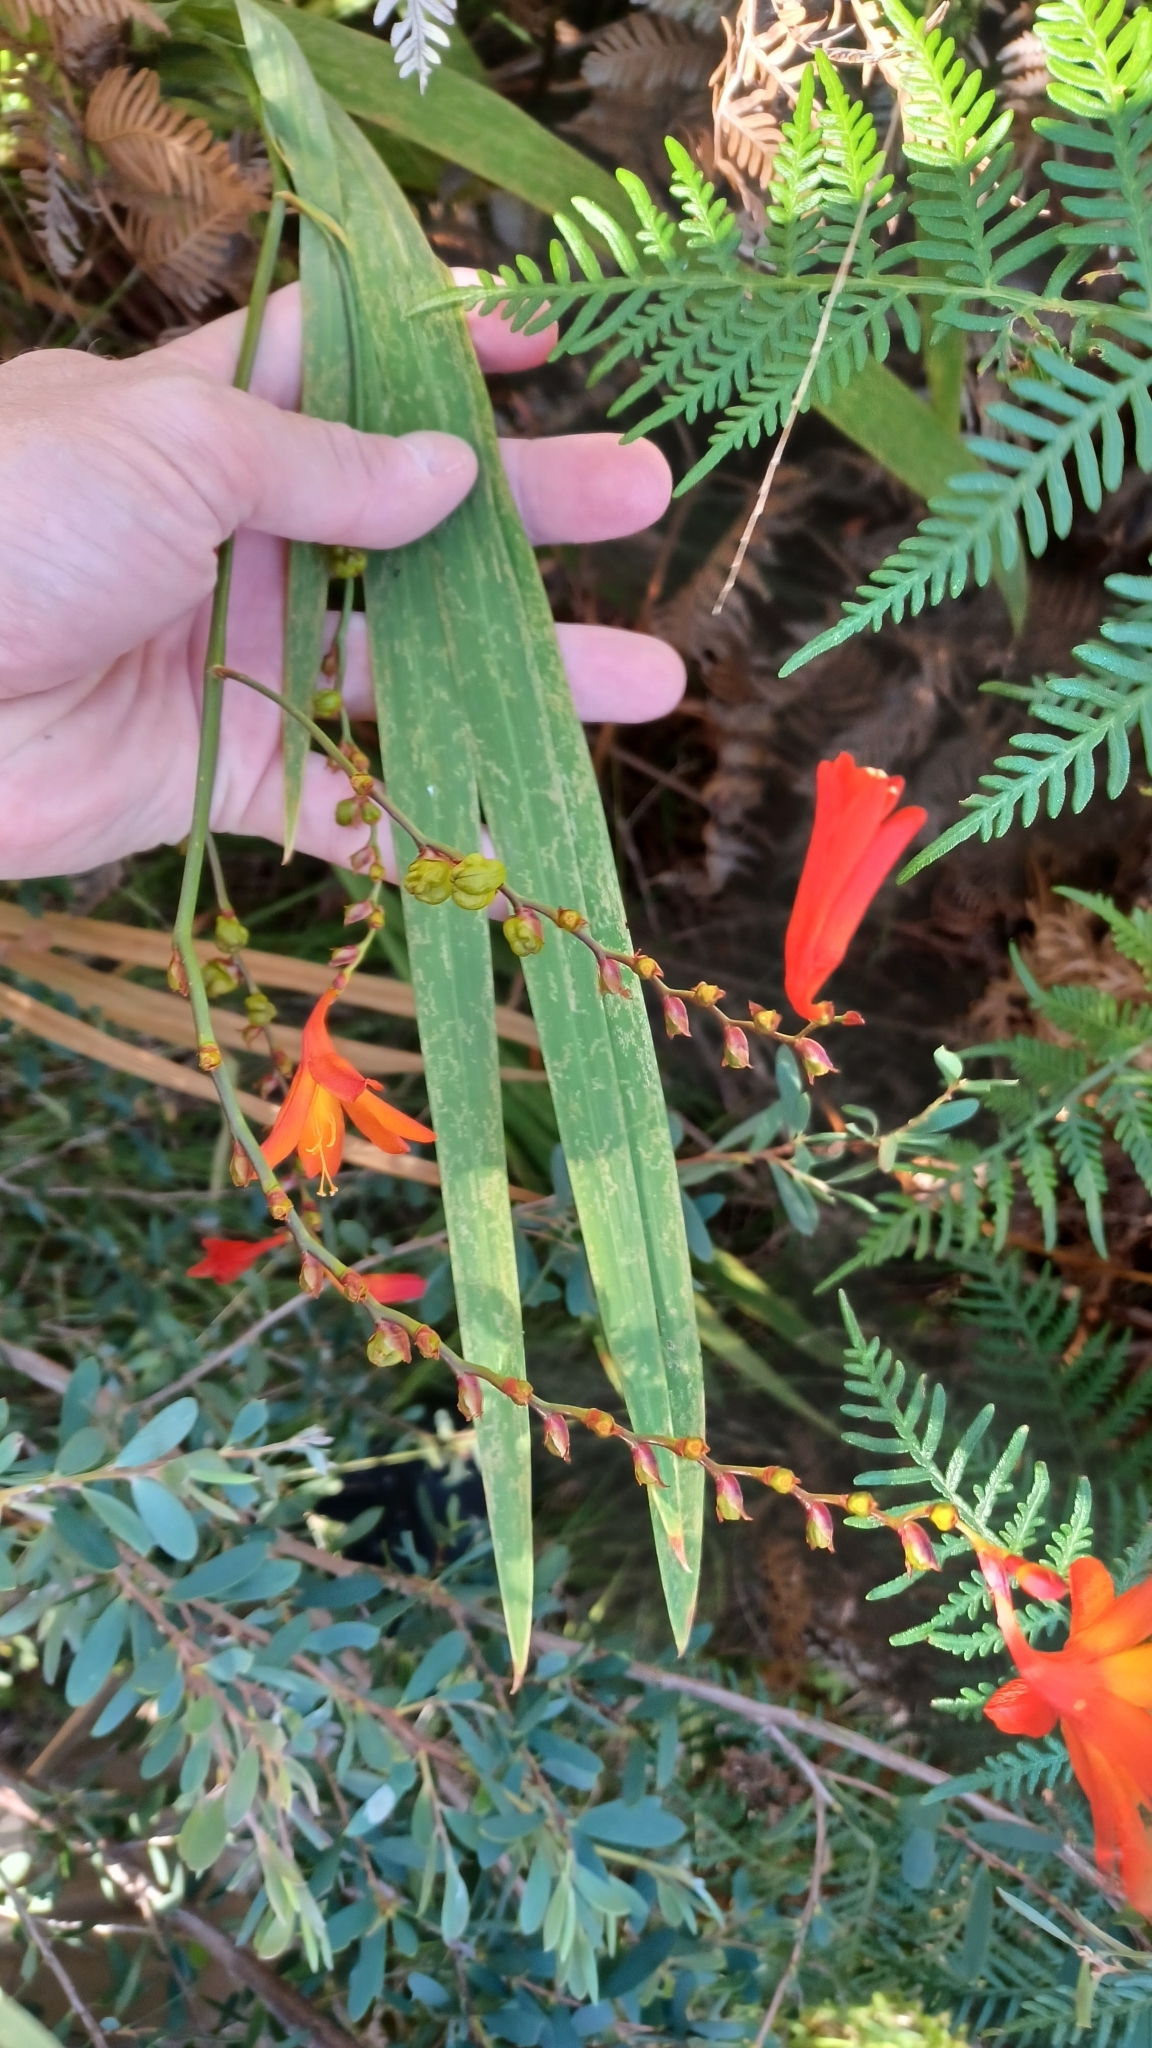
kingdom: Plantae
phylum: Tracheophyta
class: Liliopsida
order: Asparagales
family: Iridaceae
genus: Crocosmia
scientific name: Crocosmia crocosmiiflora
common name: Montbretia
